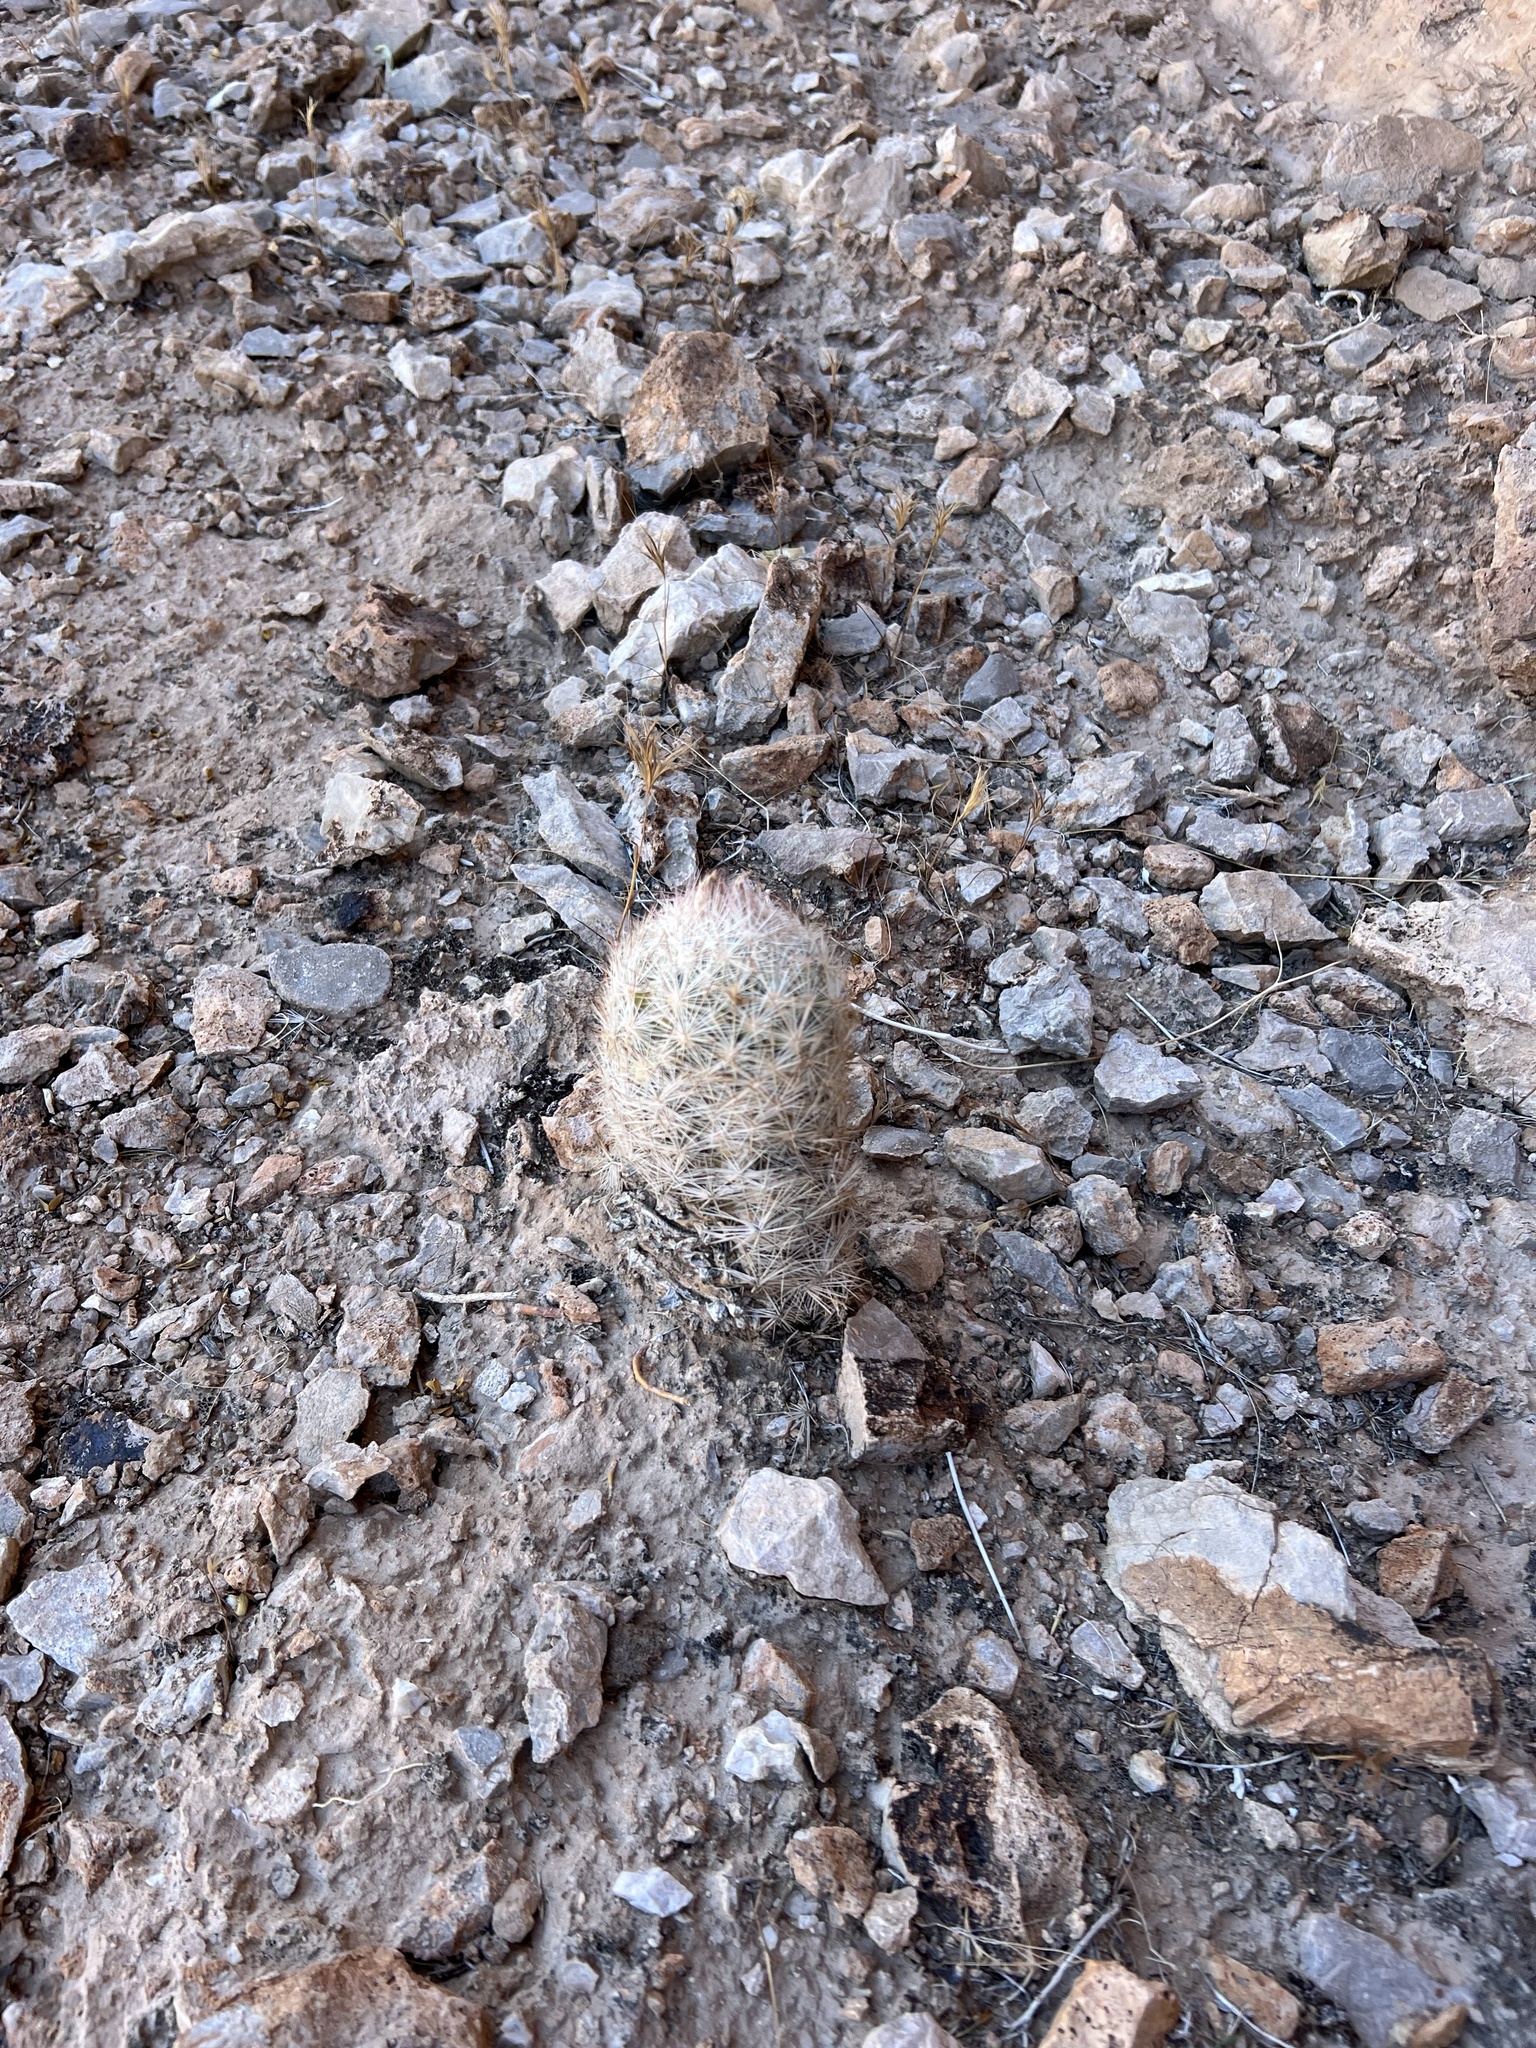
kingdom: Plantae
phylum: Tracheophyta
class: Magnoliopsida
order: Caryophyllales
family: Cactaceae
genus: Pelecyphora
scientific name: Pelecyphora dasyacantha
